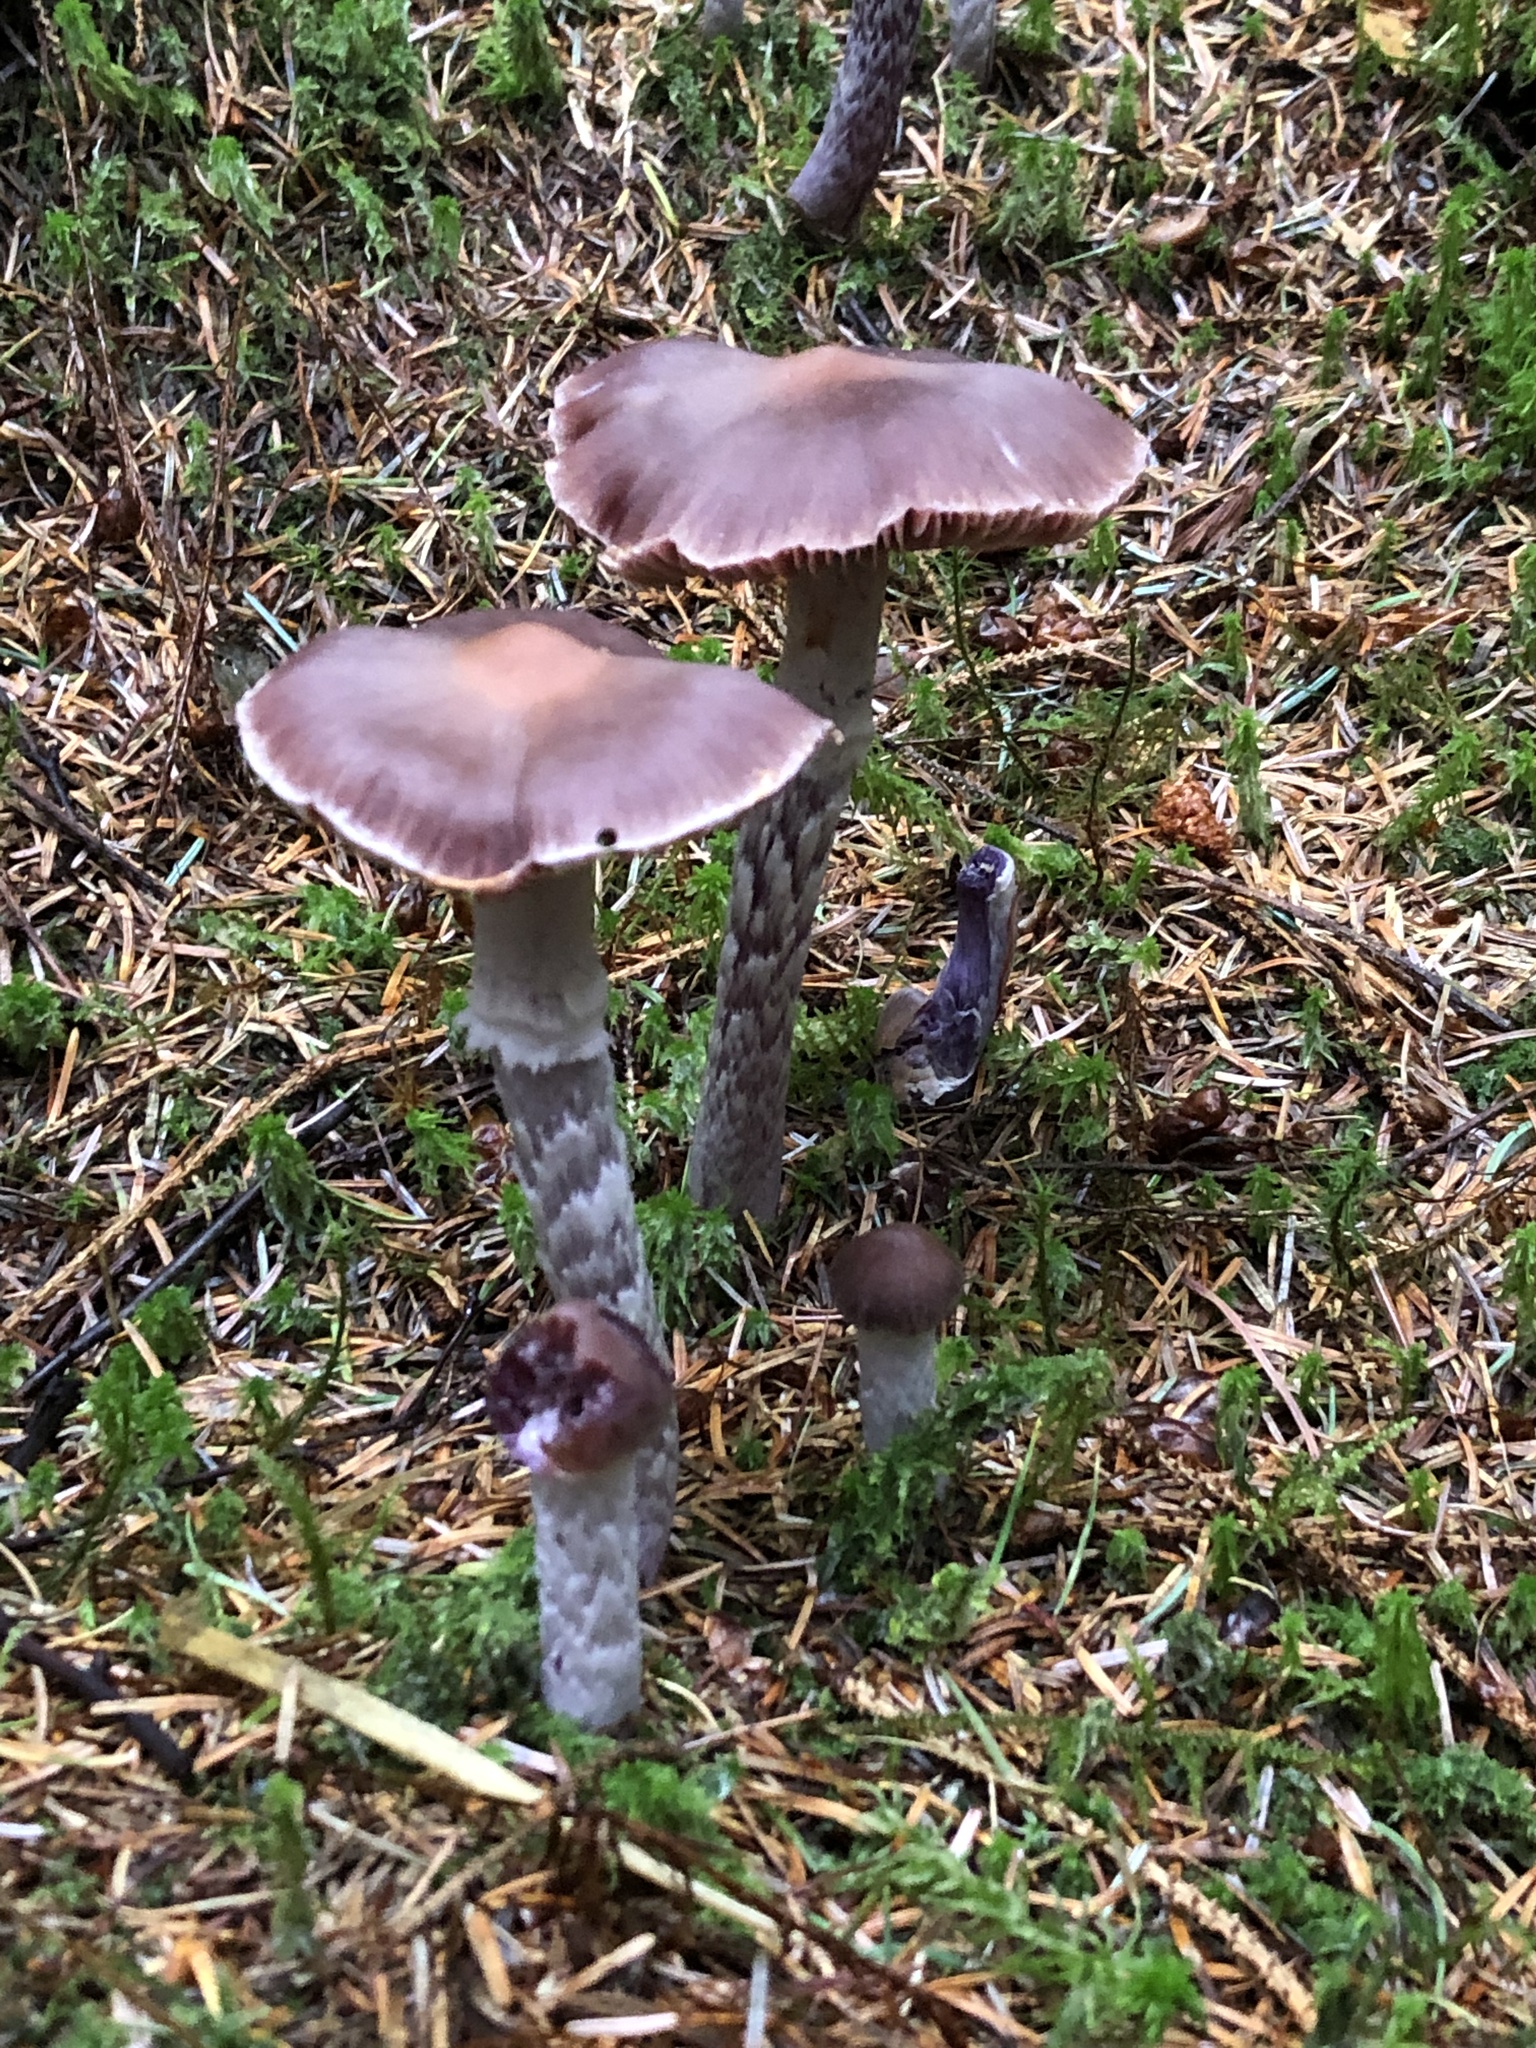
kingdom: Fungi
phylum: Basidiomycota
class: Agaricomycetes
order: Agaricales
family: Cortinariaceae
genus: Cortinarius
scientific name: Cortinarius evernius
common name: Silky webcap
